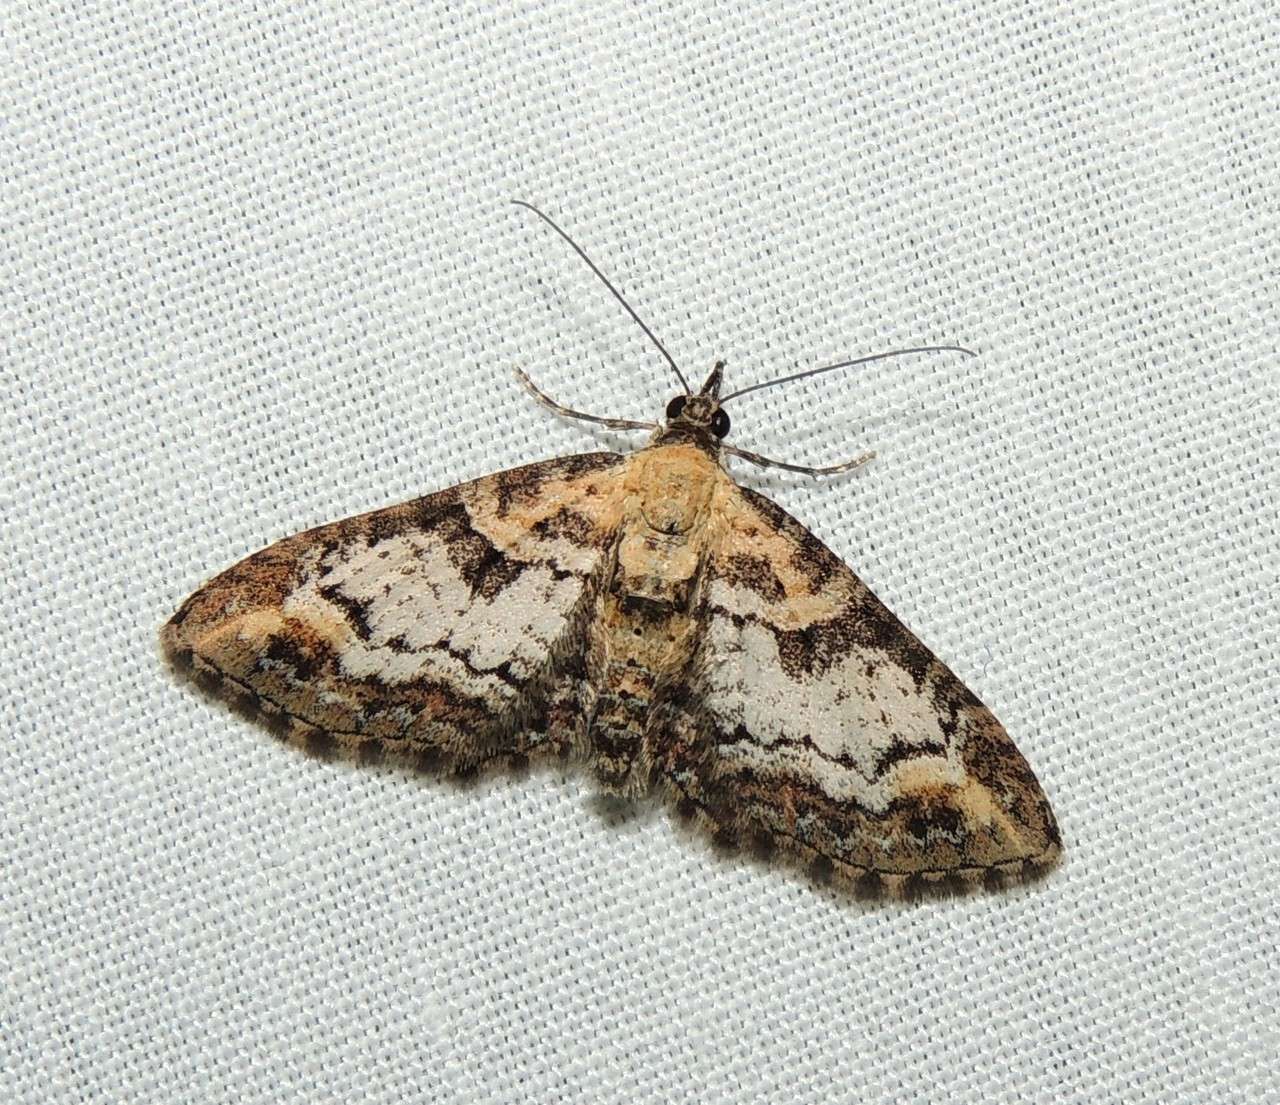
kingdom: Animalia
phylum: Arthropoda
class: Insecta
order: Lepidoptera
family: Geometridae
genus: Pasiphilodes
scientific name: Pasiphilodes testulata
